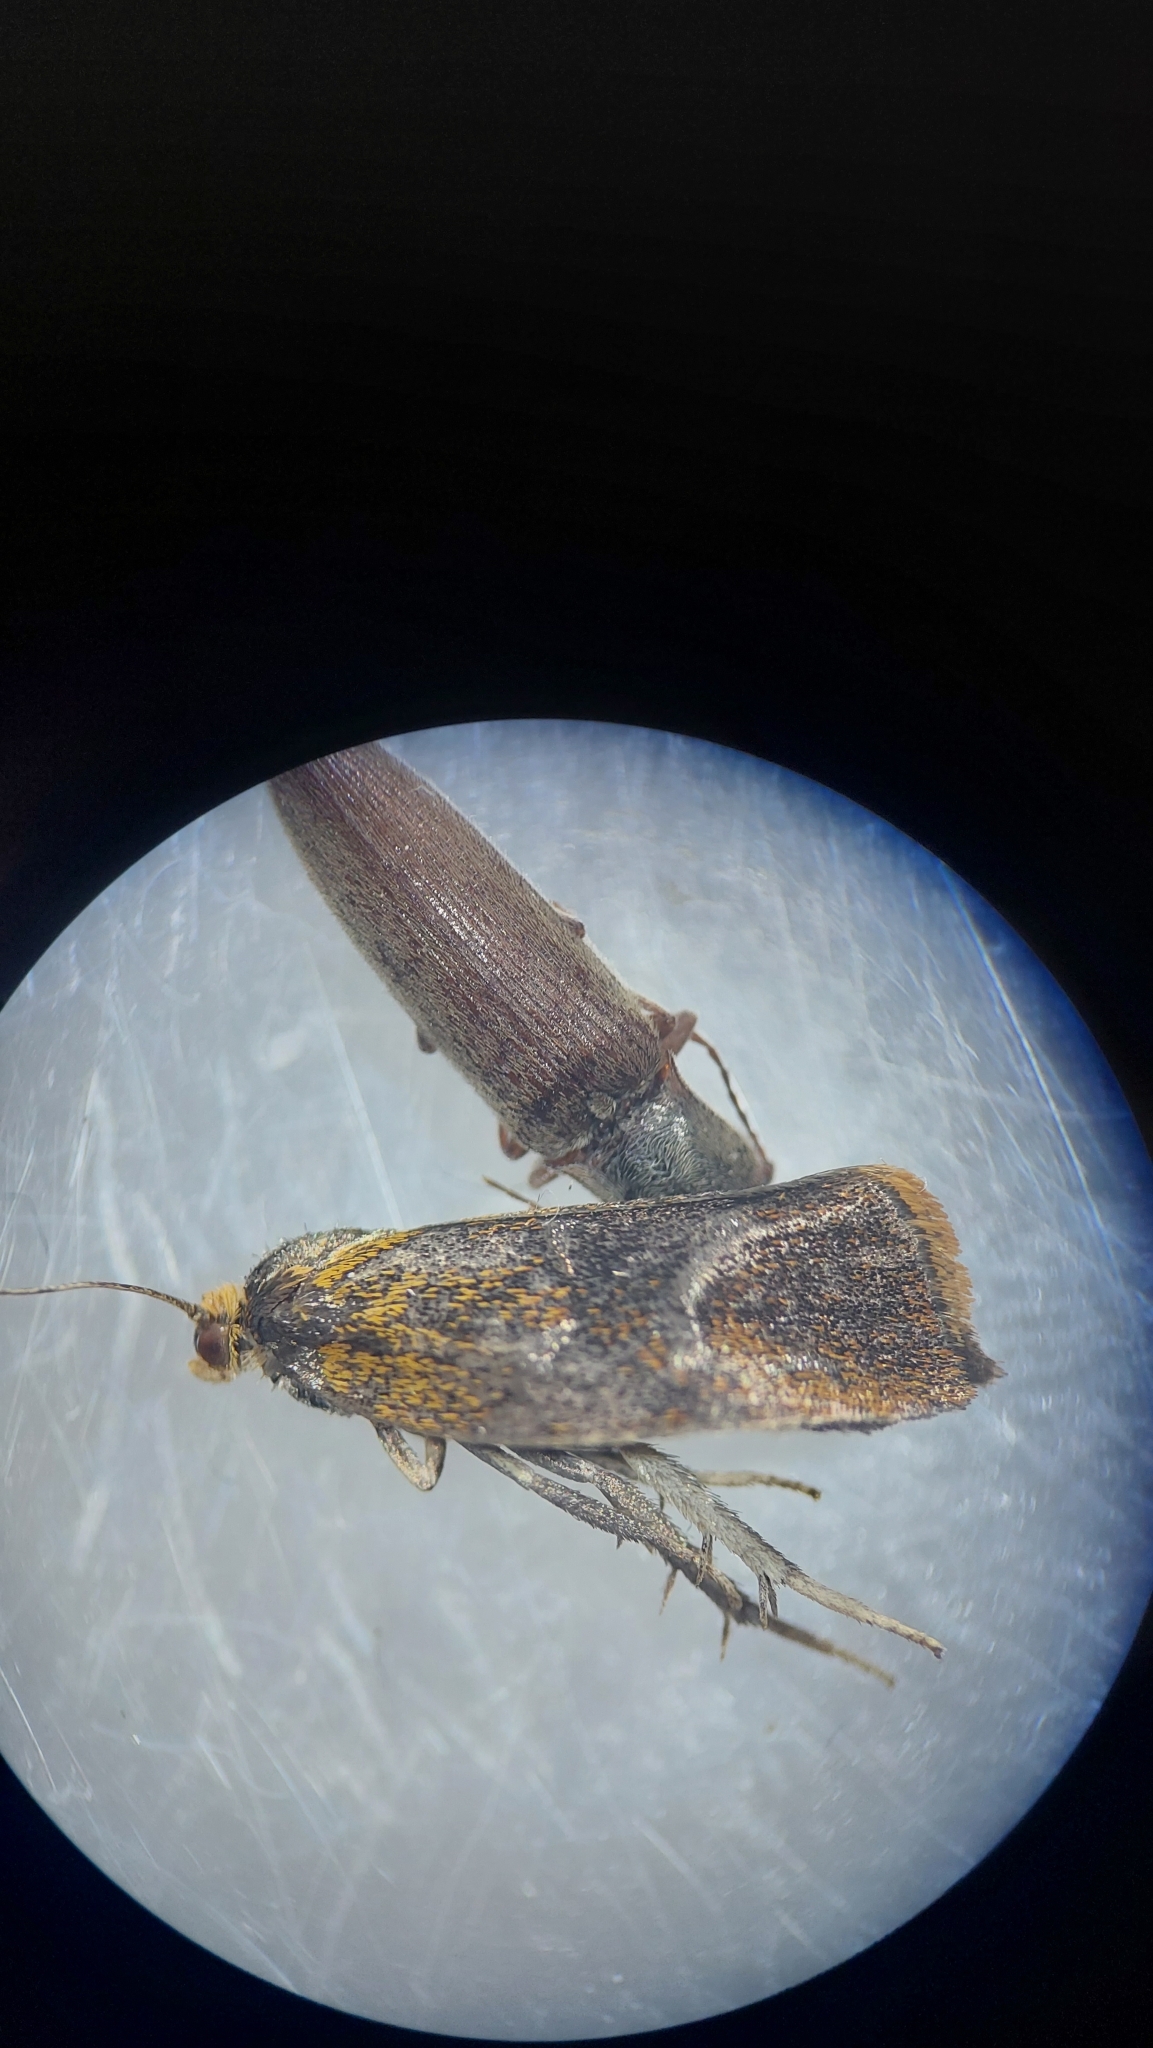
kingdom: Animalia
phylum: Arthropoda
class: Insecta
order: Lepidoptera
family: Tortricidae
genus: Ptycholoma
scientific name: Ptycholoma lecheana
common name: Leches twist moth
